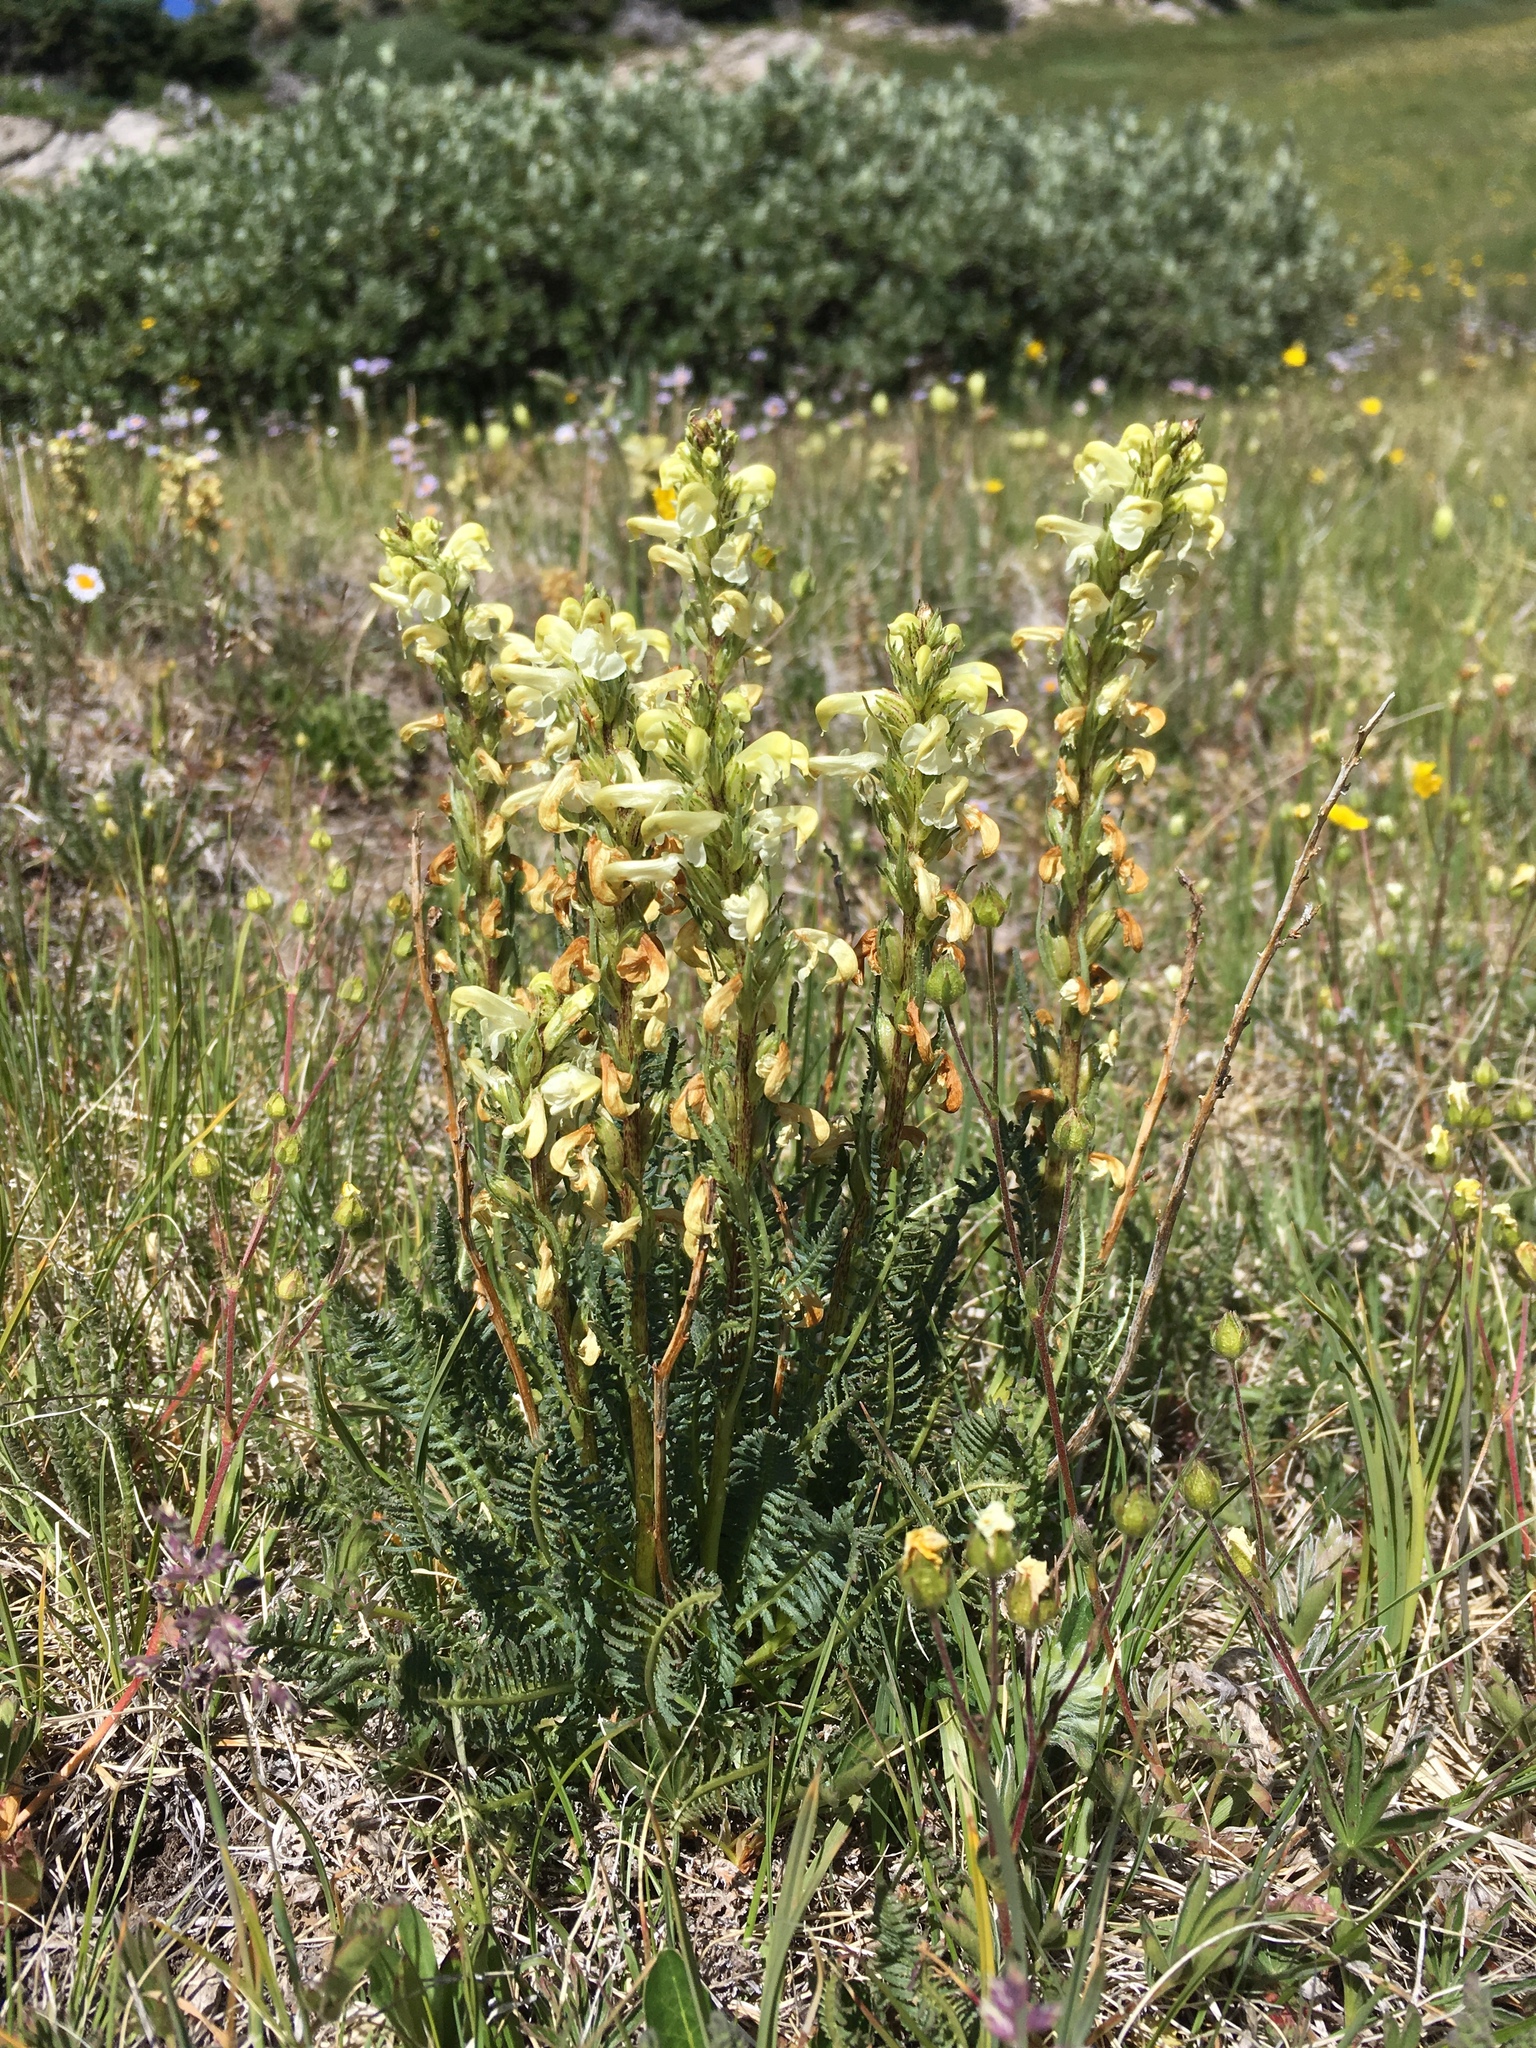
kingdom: Plantae
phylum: Tracheophyta
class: Magnoliopsida
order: Lamiales
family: Orobanchaceae
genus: Pedicularis
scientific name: Pedicularis parryi
